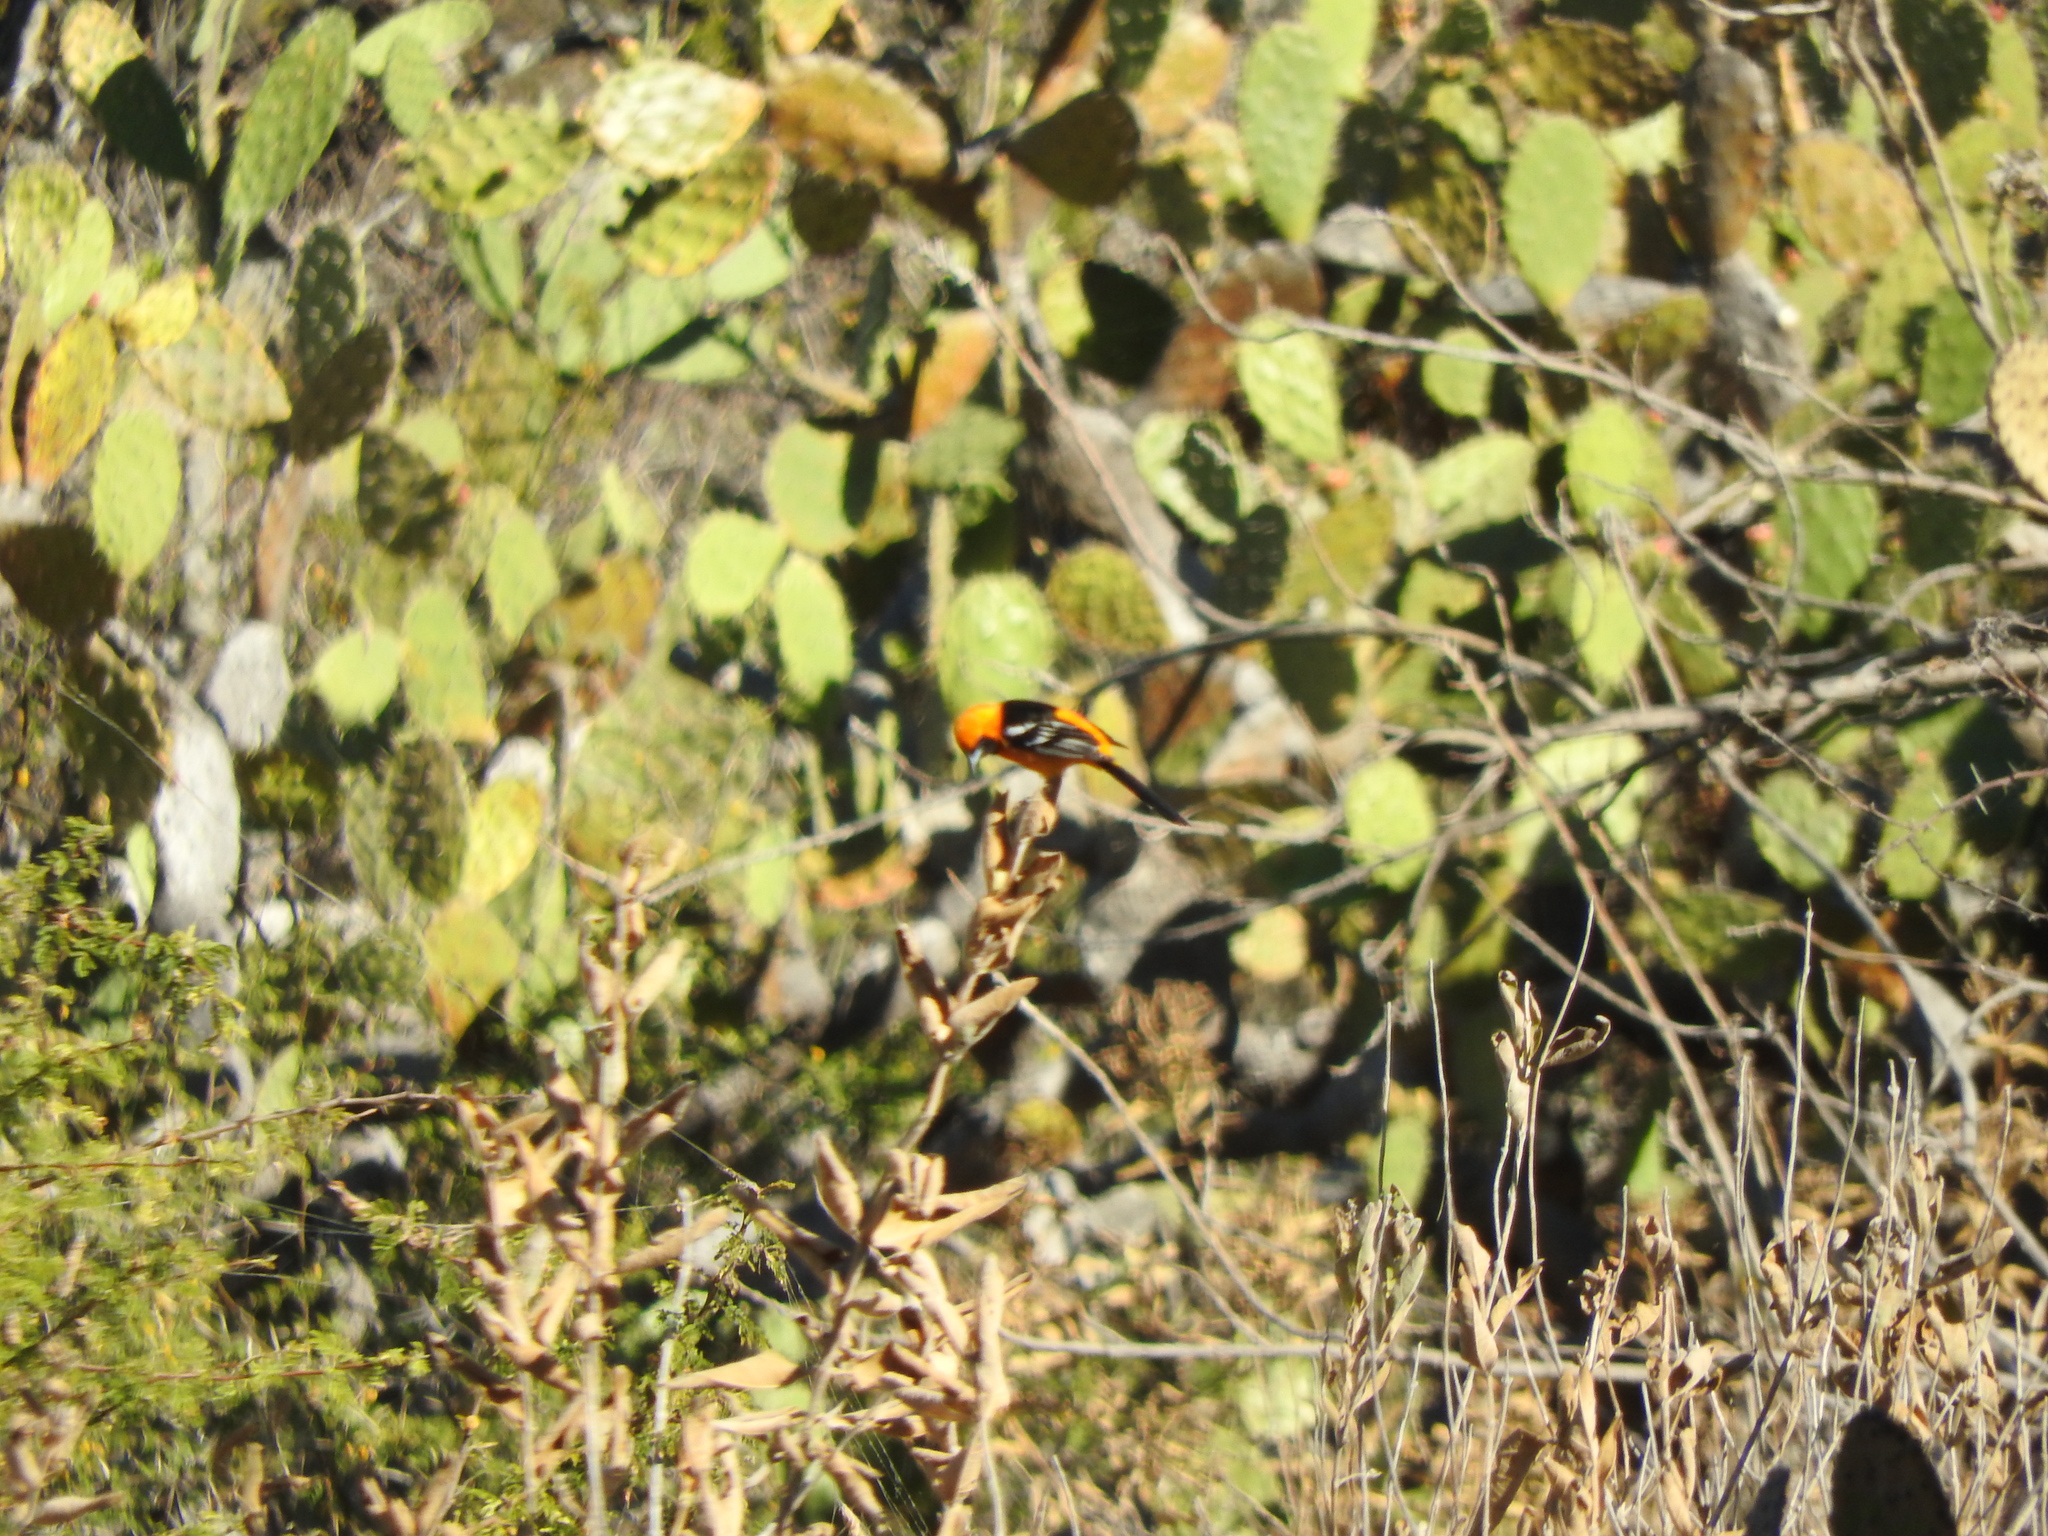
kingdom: Animalia
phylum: Chordata
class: Aves
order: Passeriformes
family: Icteridae
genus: Icterus
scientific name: Icterus cucullatus
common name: Hooded oriole
